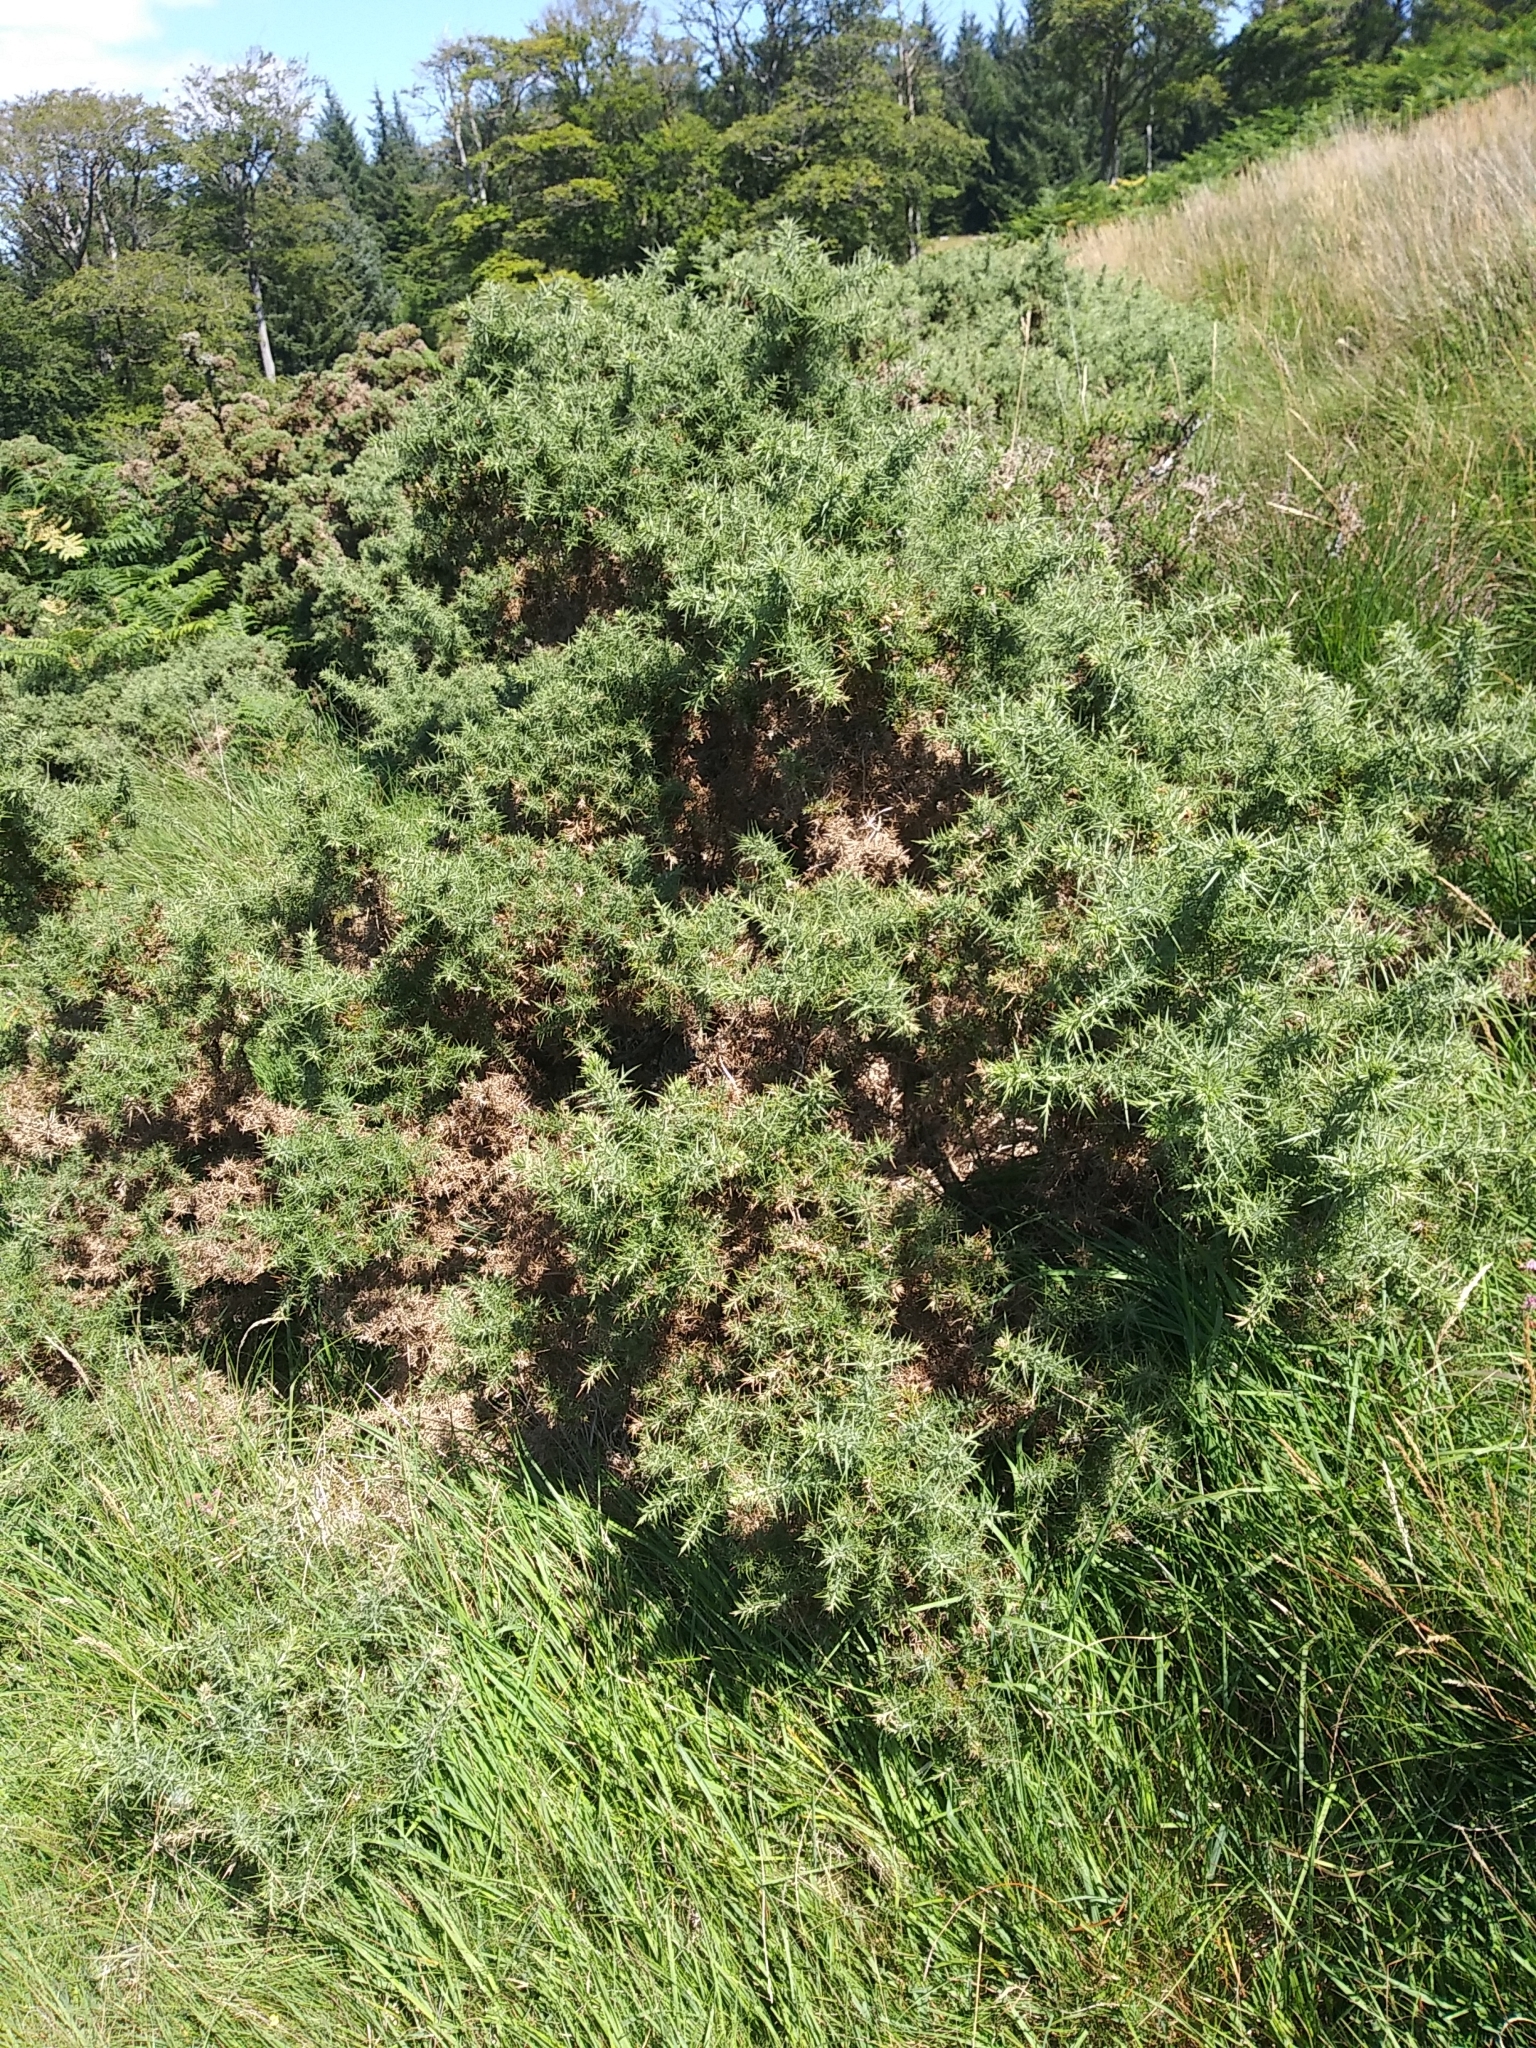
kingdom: Plantae
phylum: Tracheophyta
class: Magnoliopsida
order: Fabales
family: Fabaceae
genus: Ulex
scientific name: Ulex europaeus
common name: Common gorse
